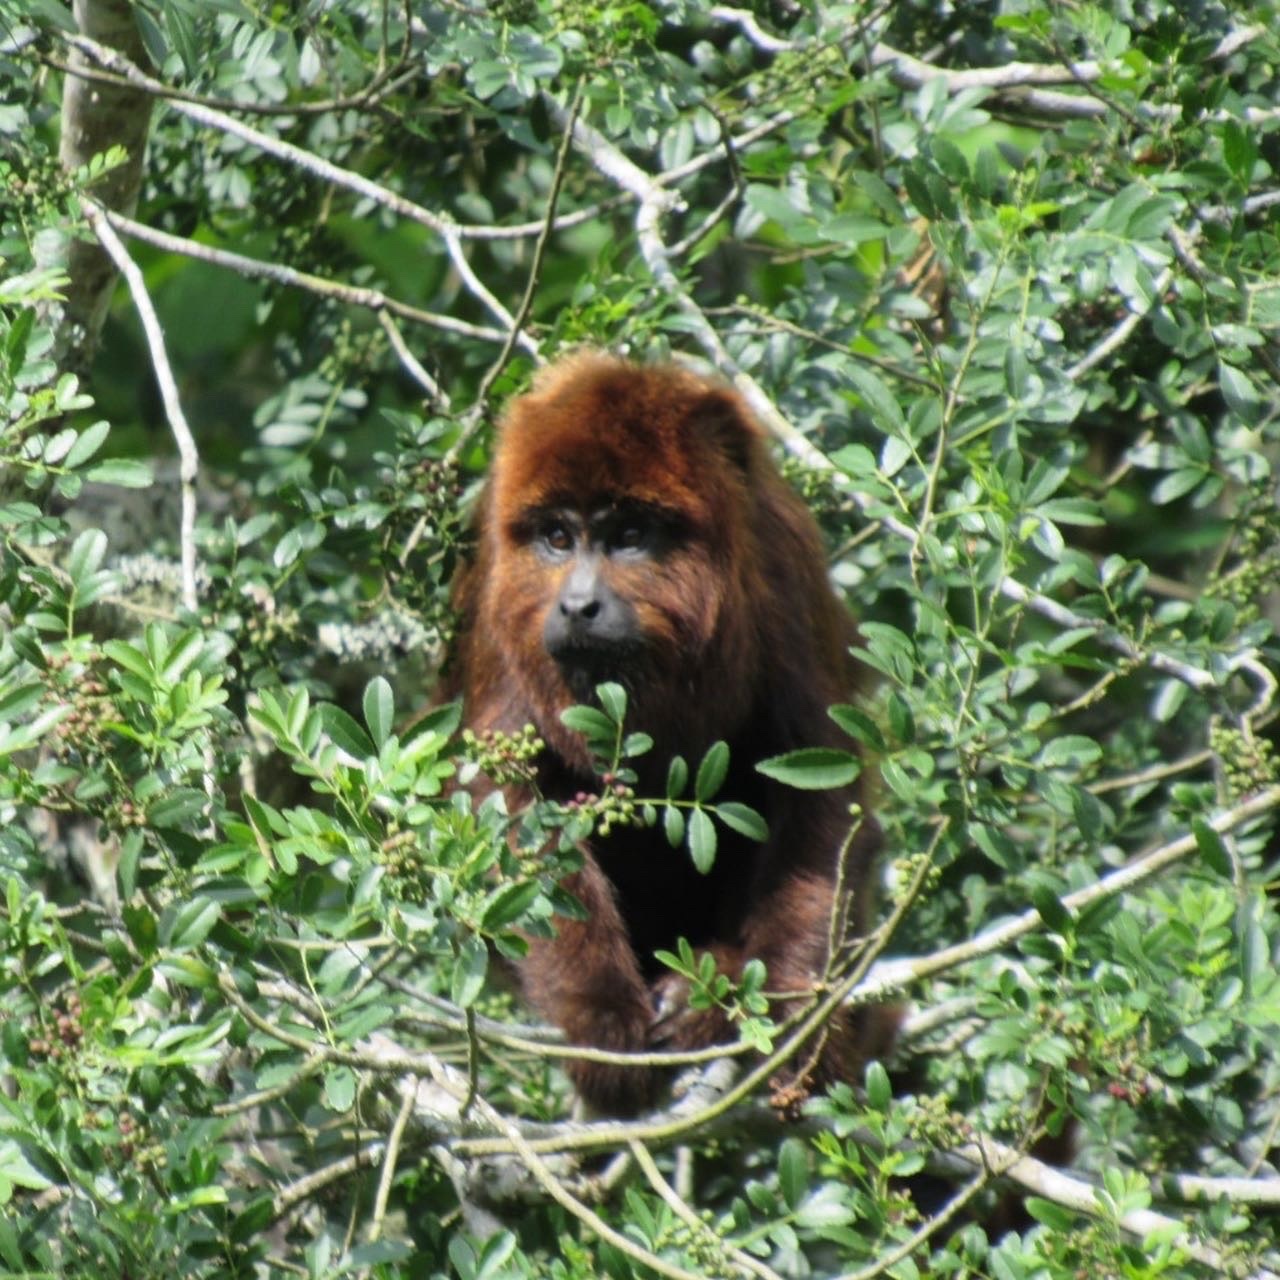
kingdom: Animalia
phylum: Chordata
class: Mammalia
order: Primates
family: Atelidae
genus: Alouatta
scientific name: Alouatta guariba
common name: Brown howler monkey
